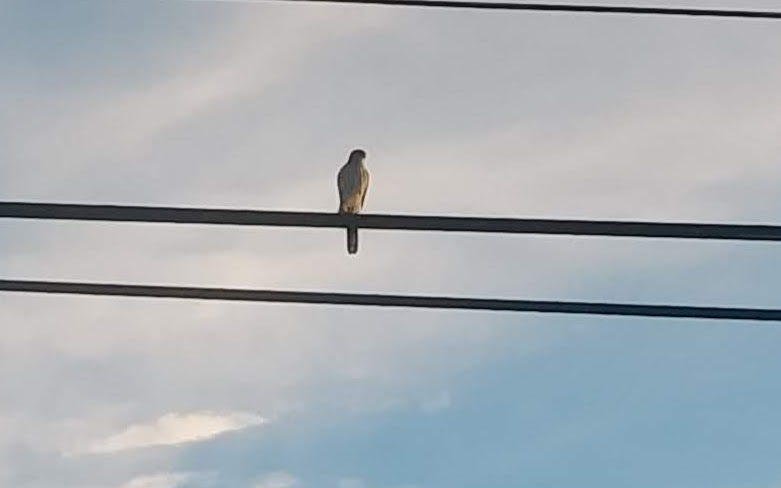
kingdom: Animalia
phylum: Chordata
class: Aves
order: Accipitriformes
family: Accipitridae
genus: Accipiter
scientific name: Accipiter cooperii
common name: Cooper's hawk
